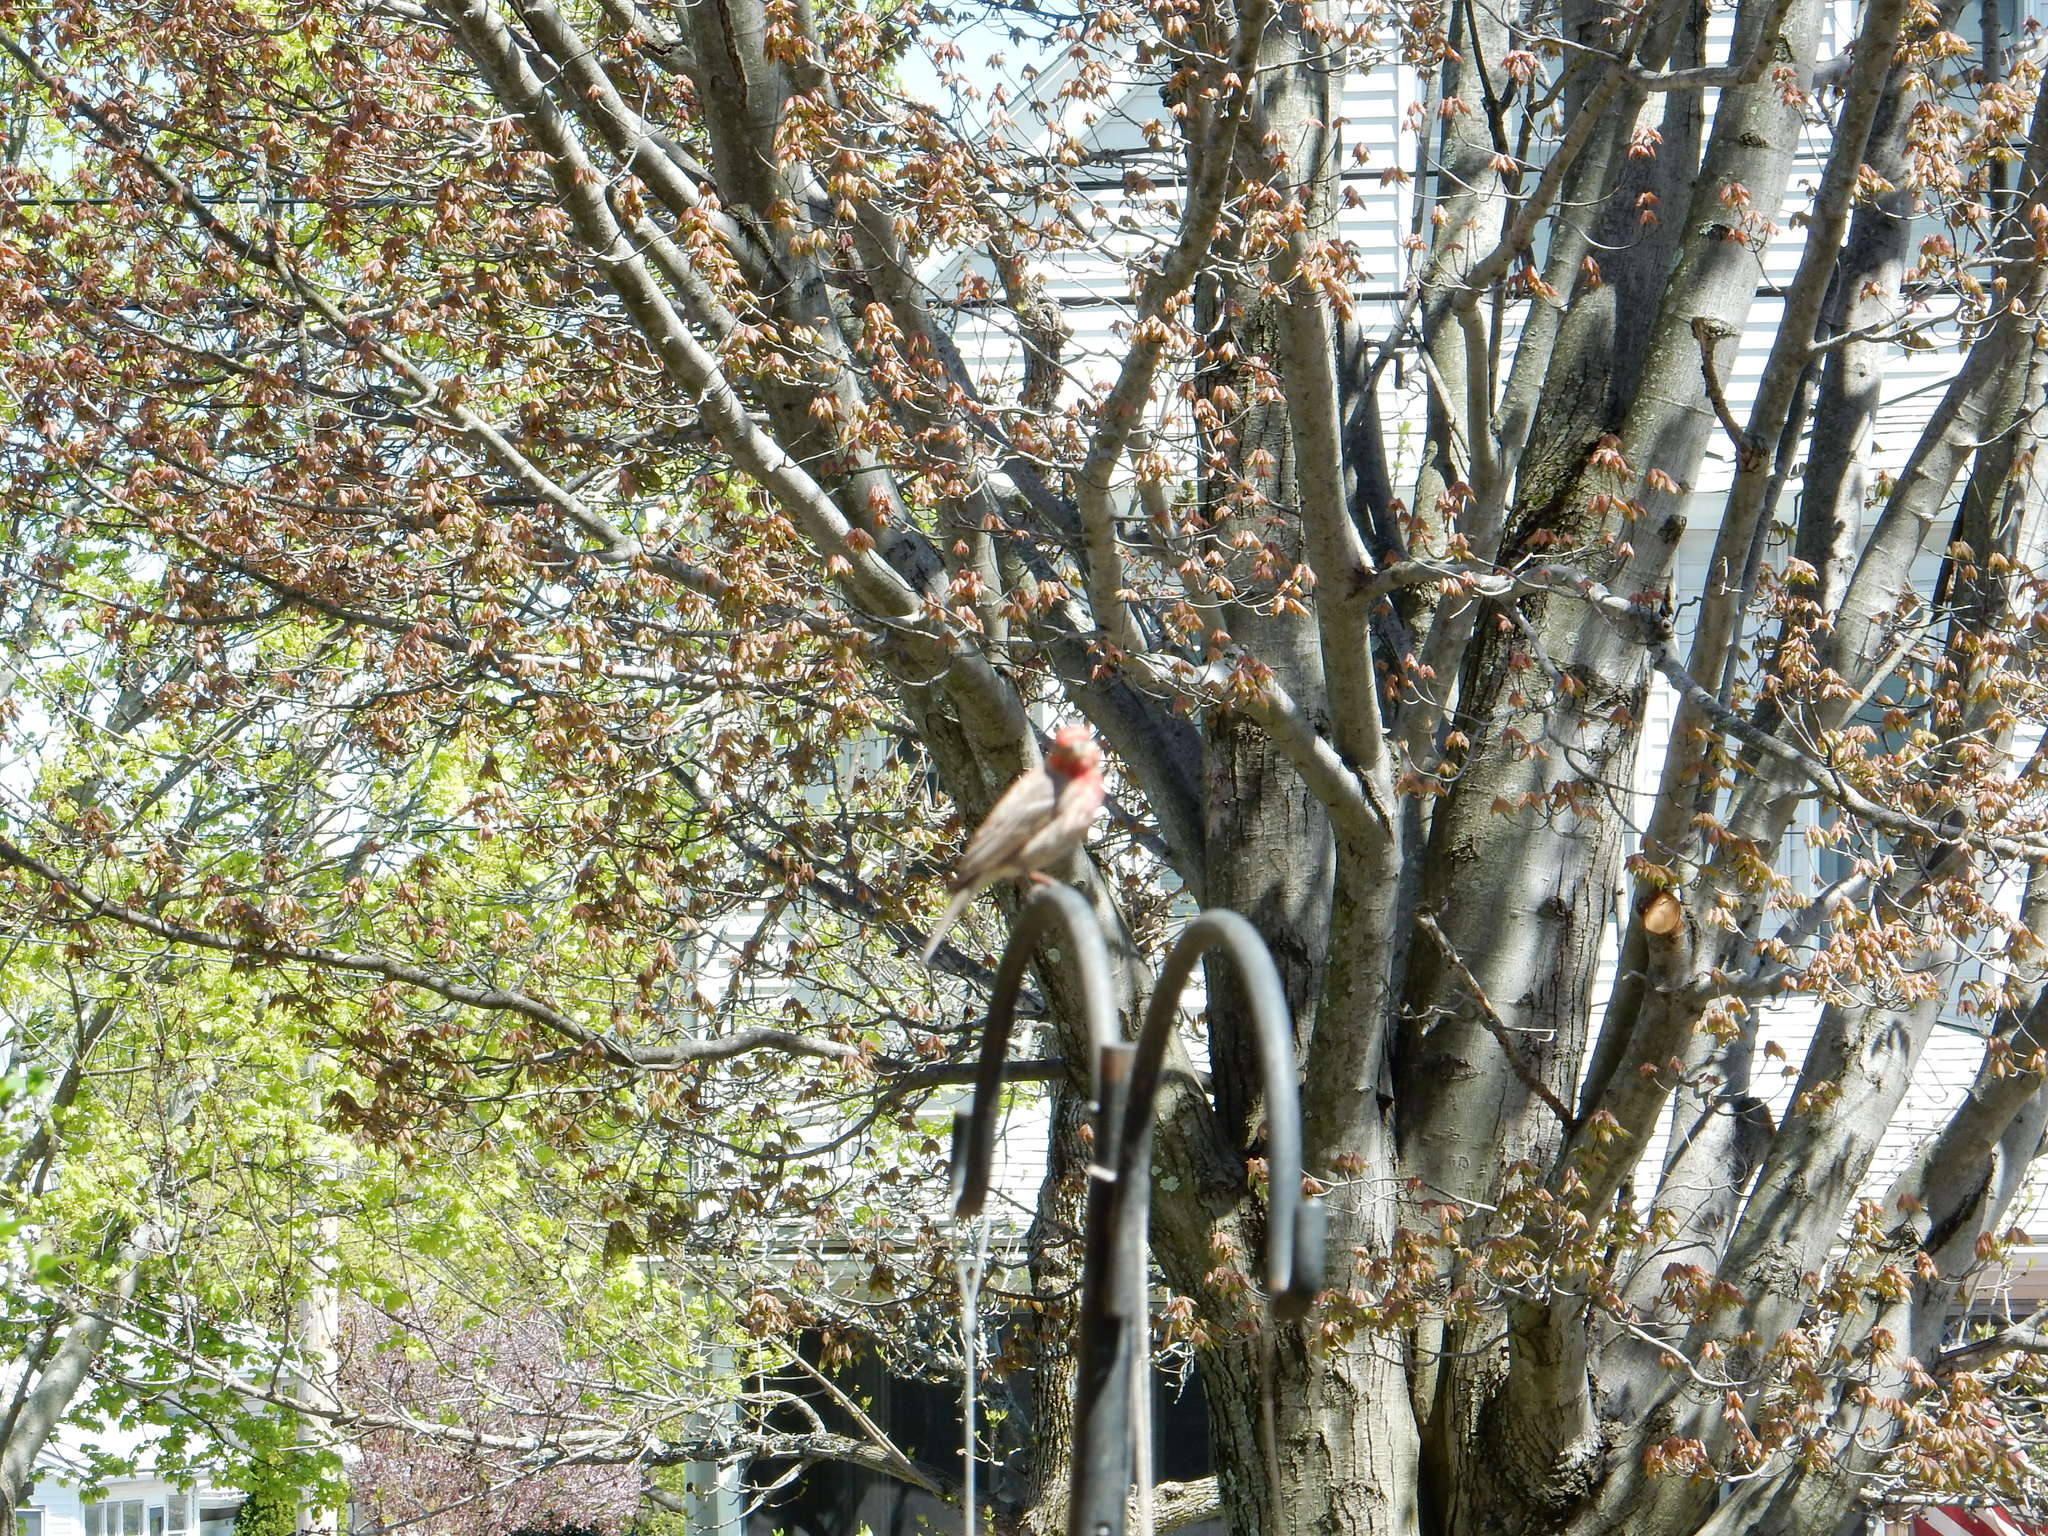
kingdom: Animalia
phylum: Chordata
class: Aves
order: Passeriformes
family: Fringillidae
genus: Haemorhous
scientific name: Haemorhous mexicanus
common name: House finch
